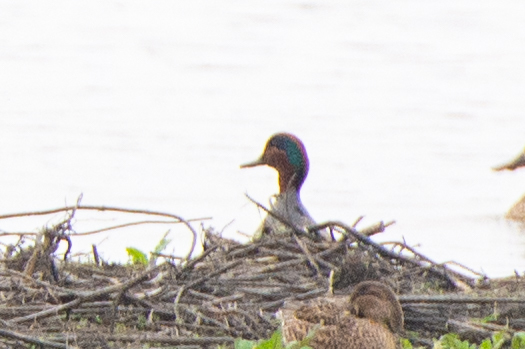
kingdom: Animalia
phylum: Chordata
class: Aves
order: Anseriformes
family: Anatidae
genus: Anas
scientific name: Anas crecca
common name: Eurasian teal
